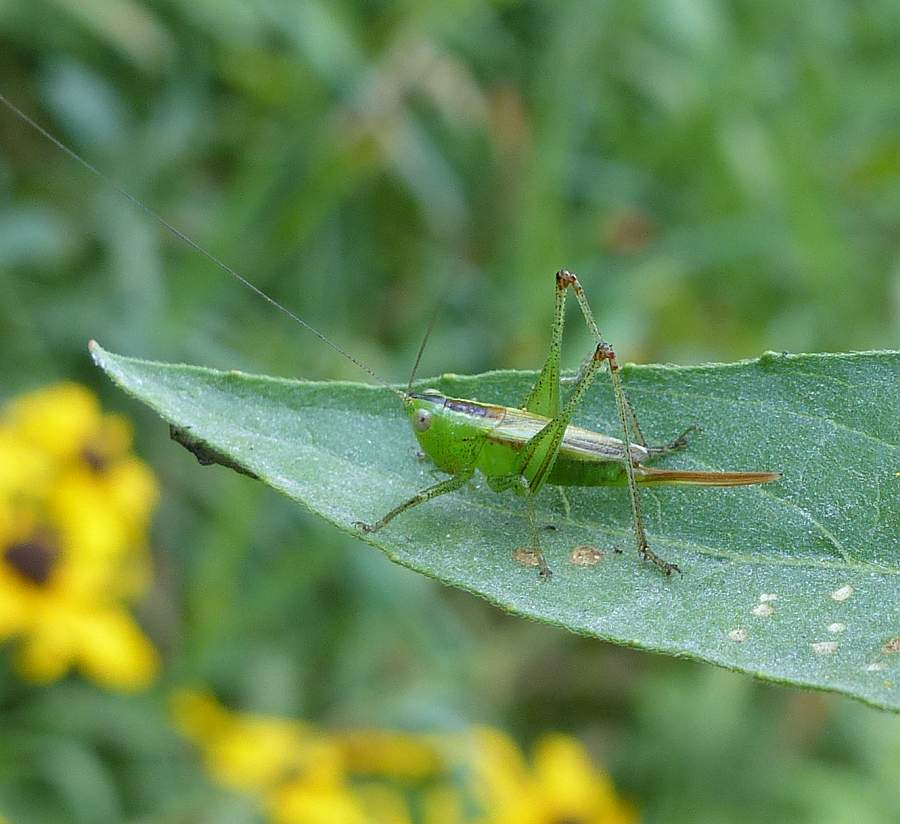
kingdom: Animalia
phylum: Arthropoda
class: Insecta
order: Orthoptera
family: Tettigoniidae
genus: Conocephalus
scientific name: Conocephalus brevipennis
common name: Short-winged meadow katydid
